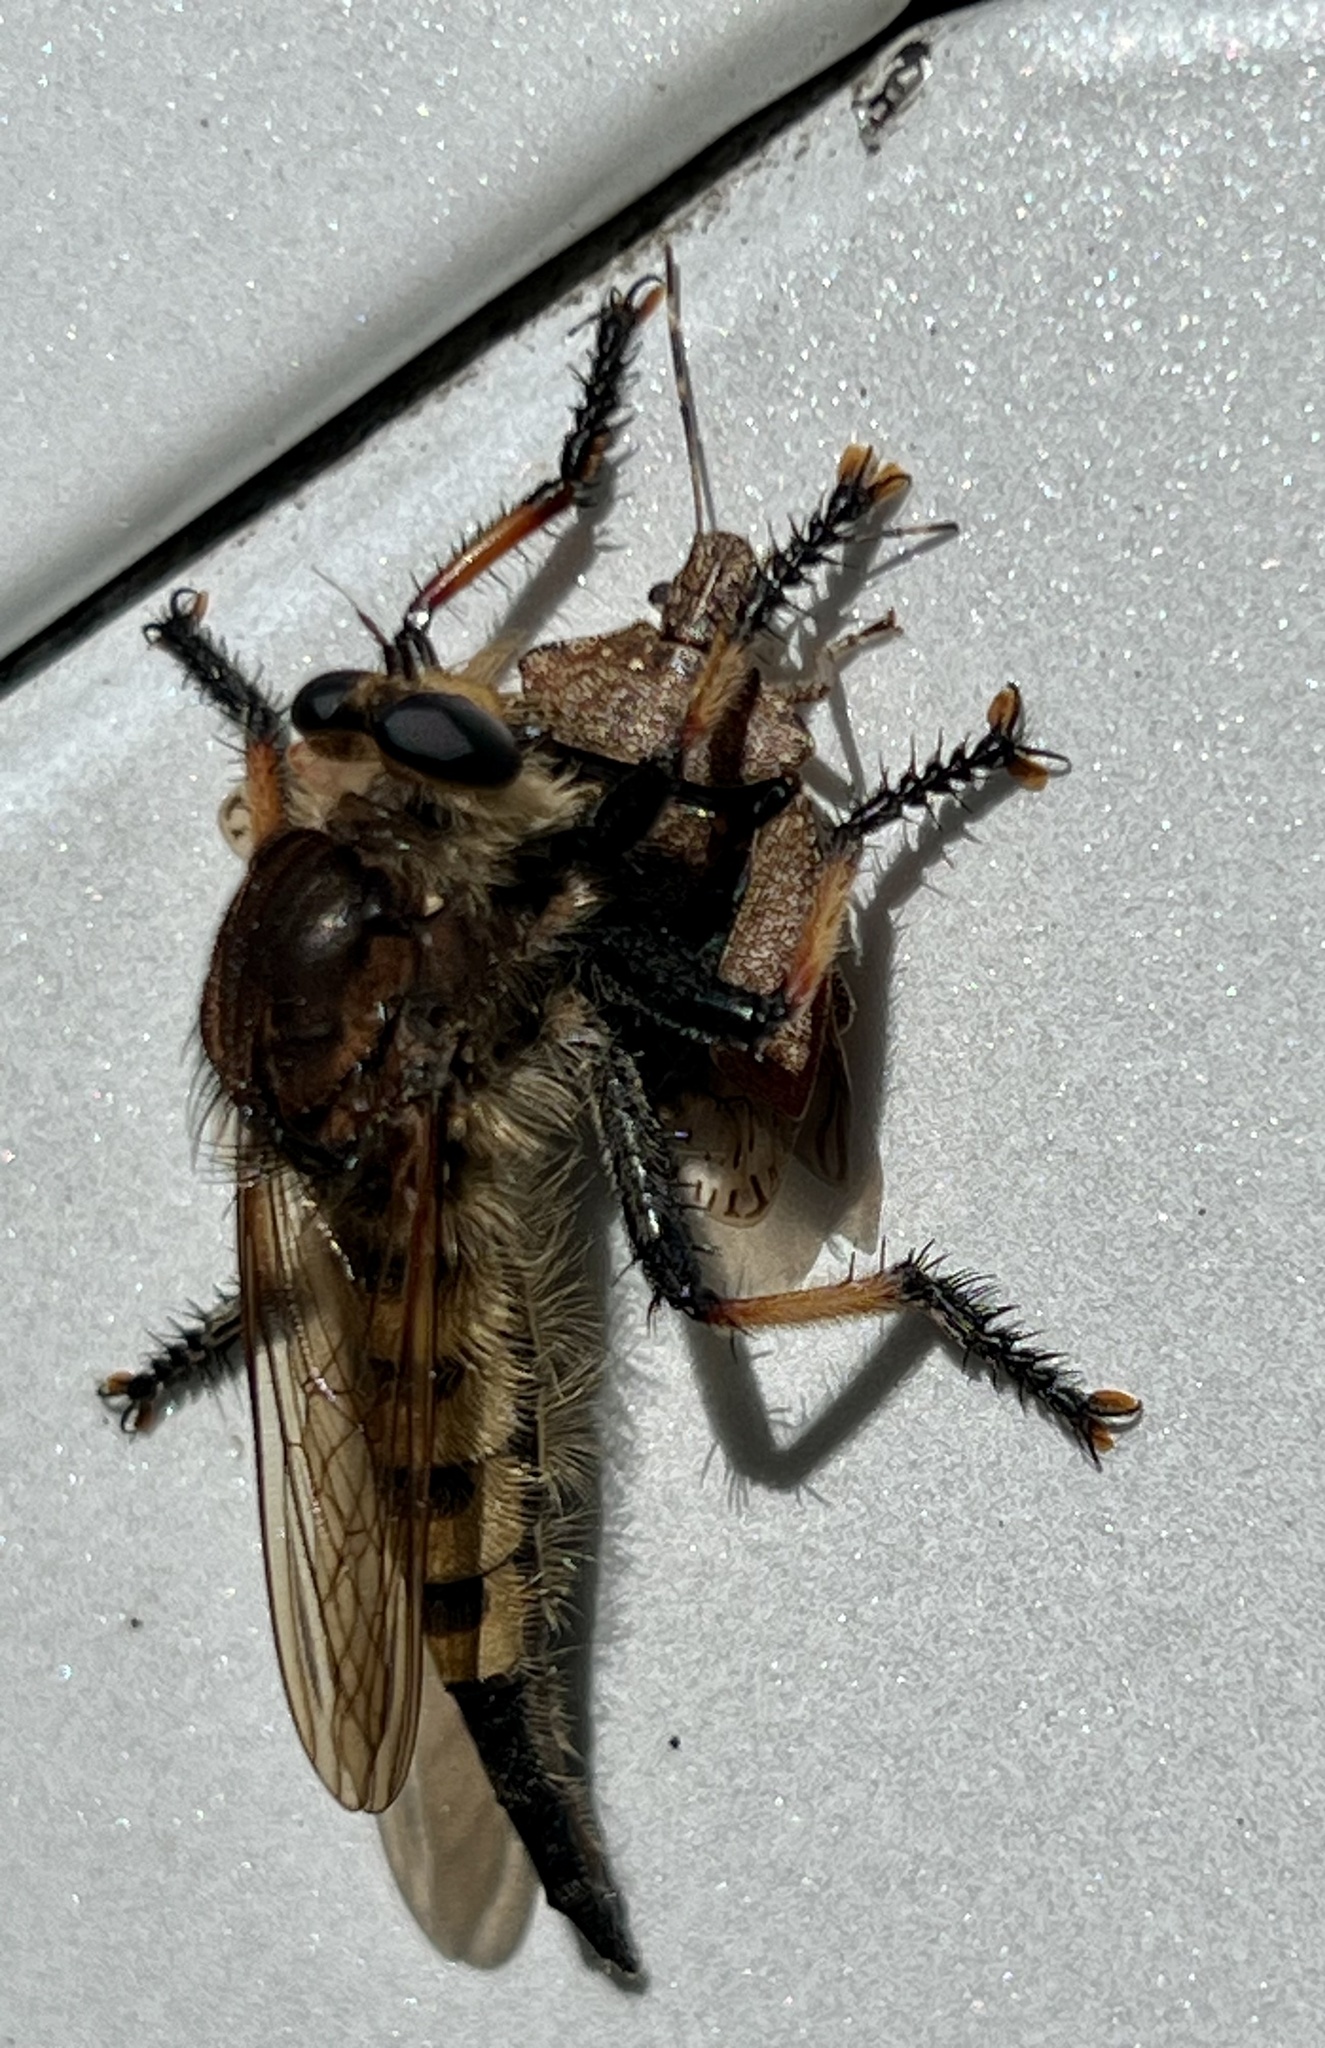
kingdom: Animalia
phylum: Arthropoda
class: Insecta
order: Diptera
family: Asilidae
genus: Promachus
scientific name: Promachus rufipes
